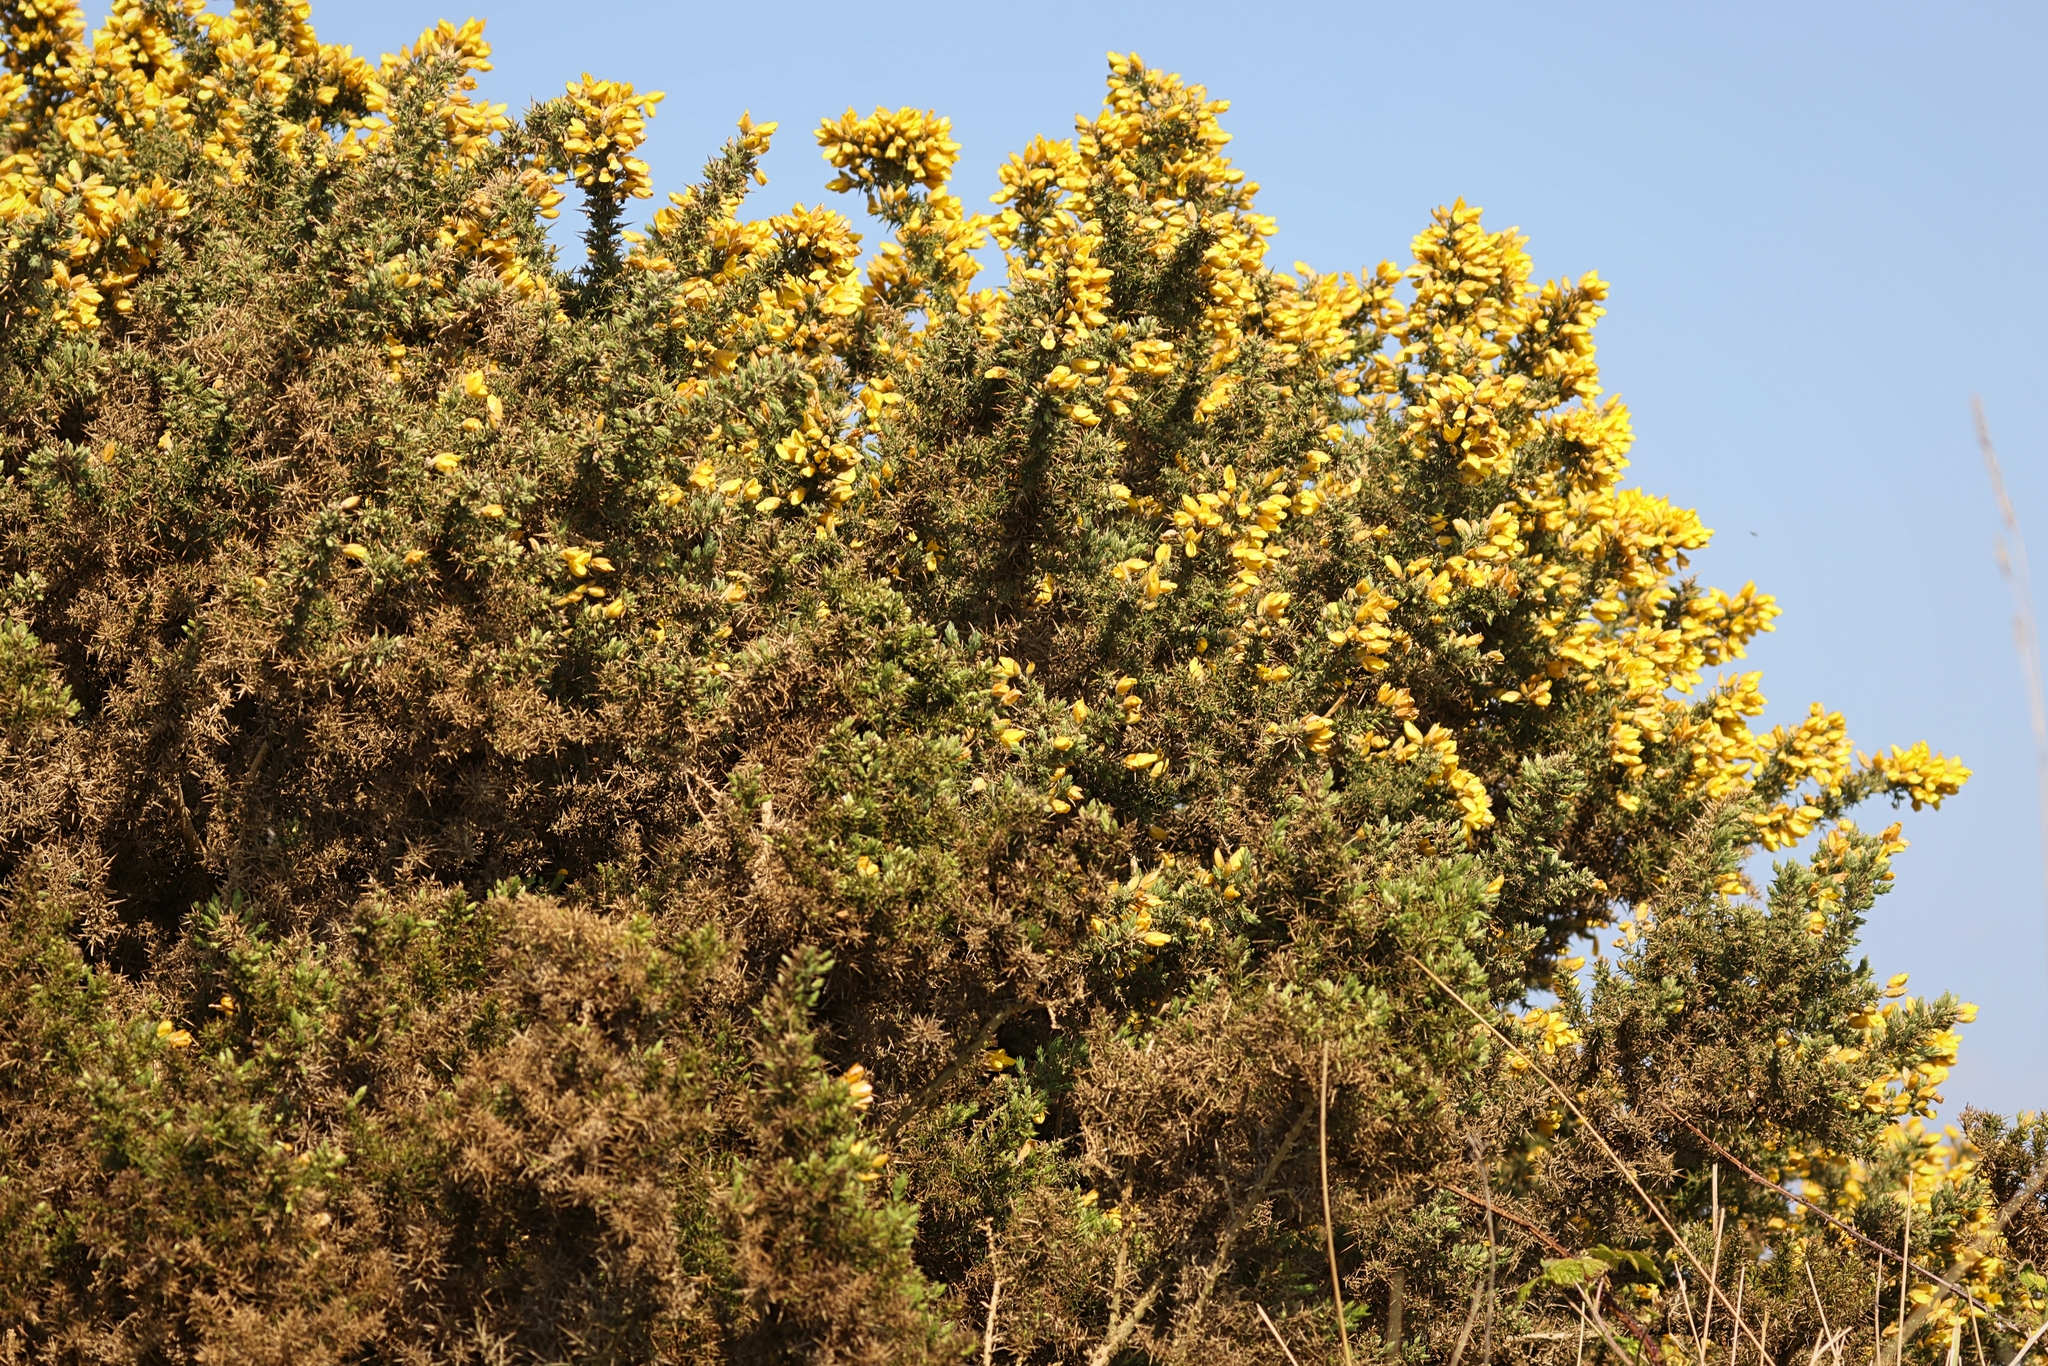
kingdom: Plantae
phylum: Tracheophyta
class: Magnoliopsida
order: Fabales
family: Fabaceae
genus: Ulex
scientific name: Ulex europaeus
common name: Common gorse
